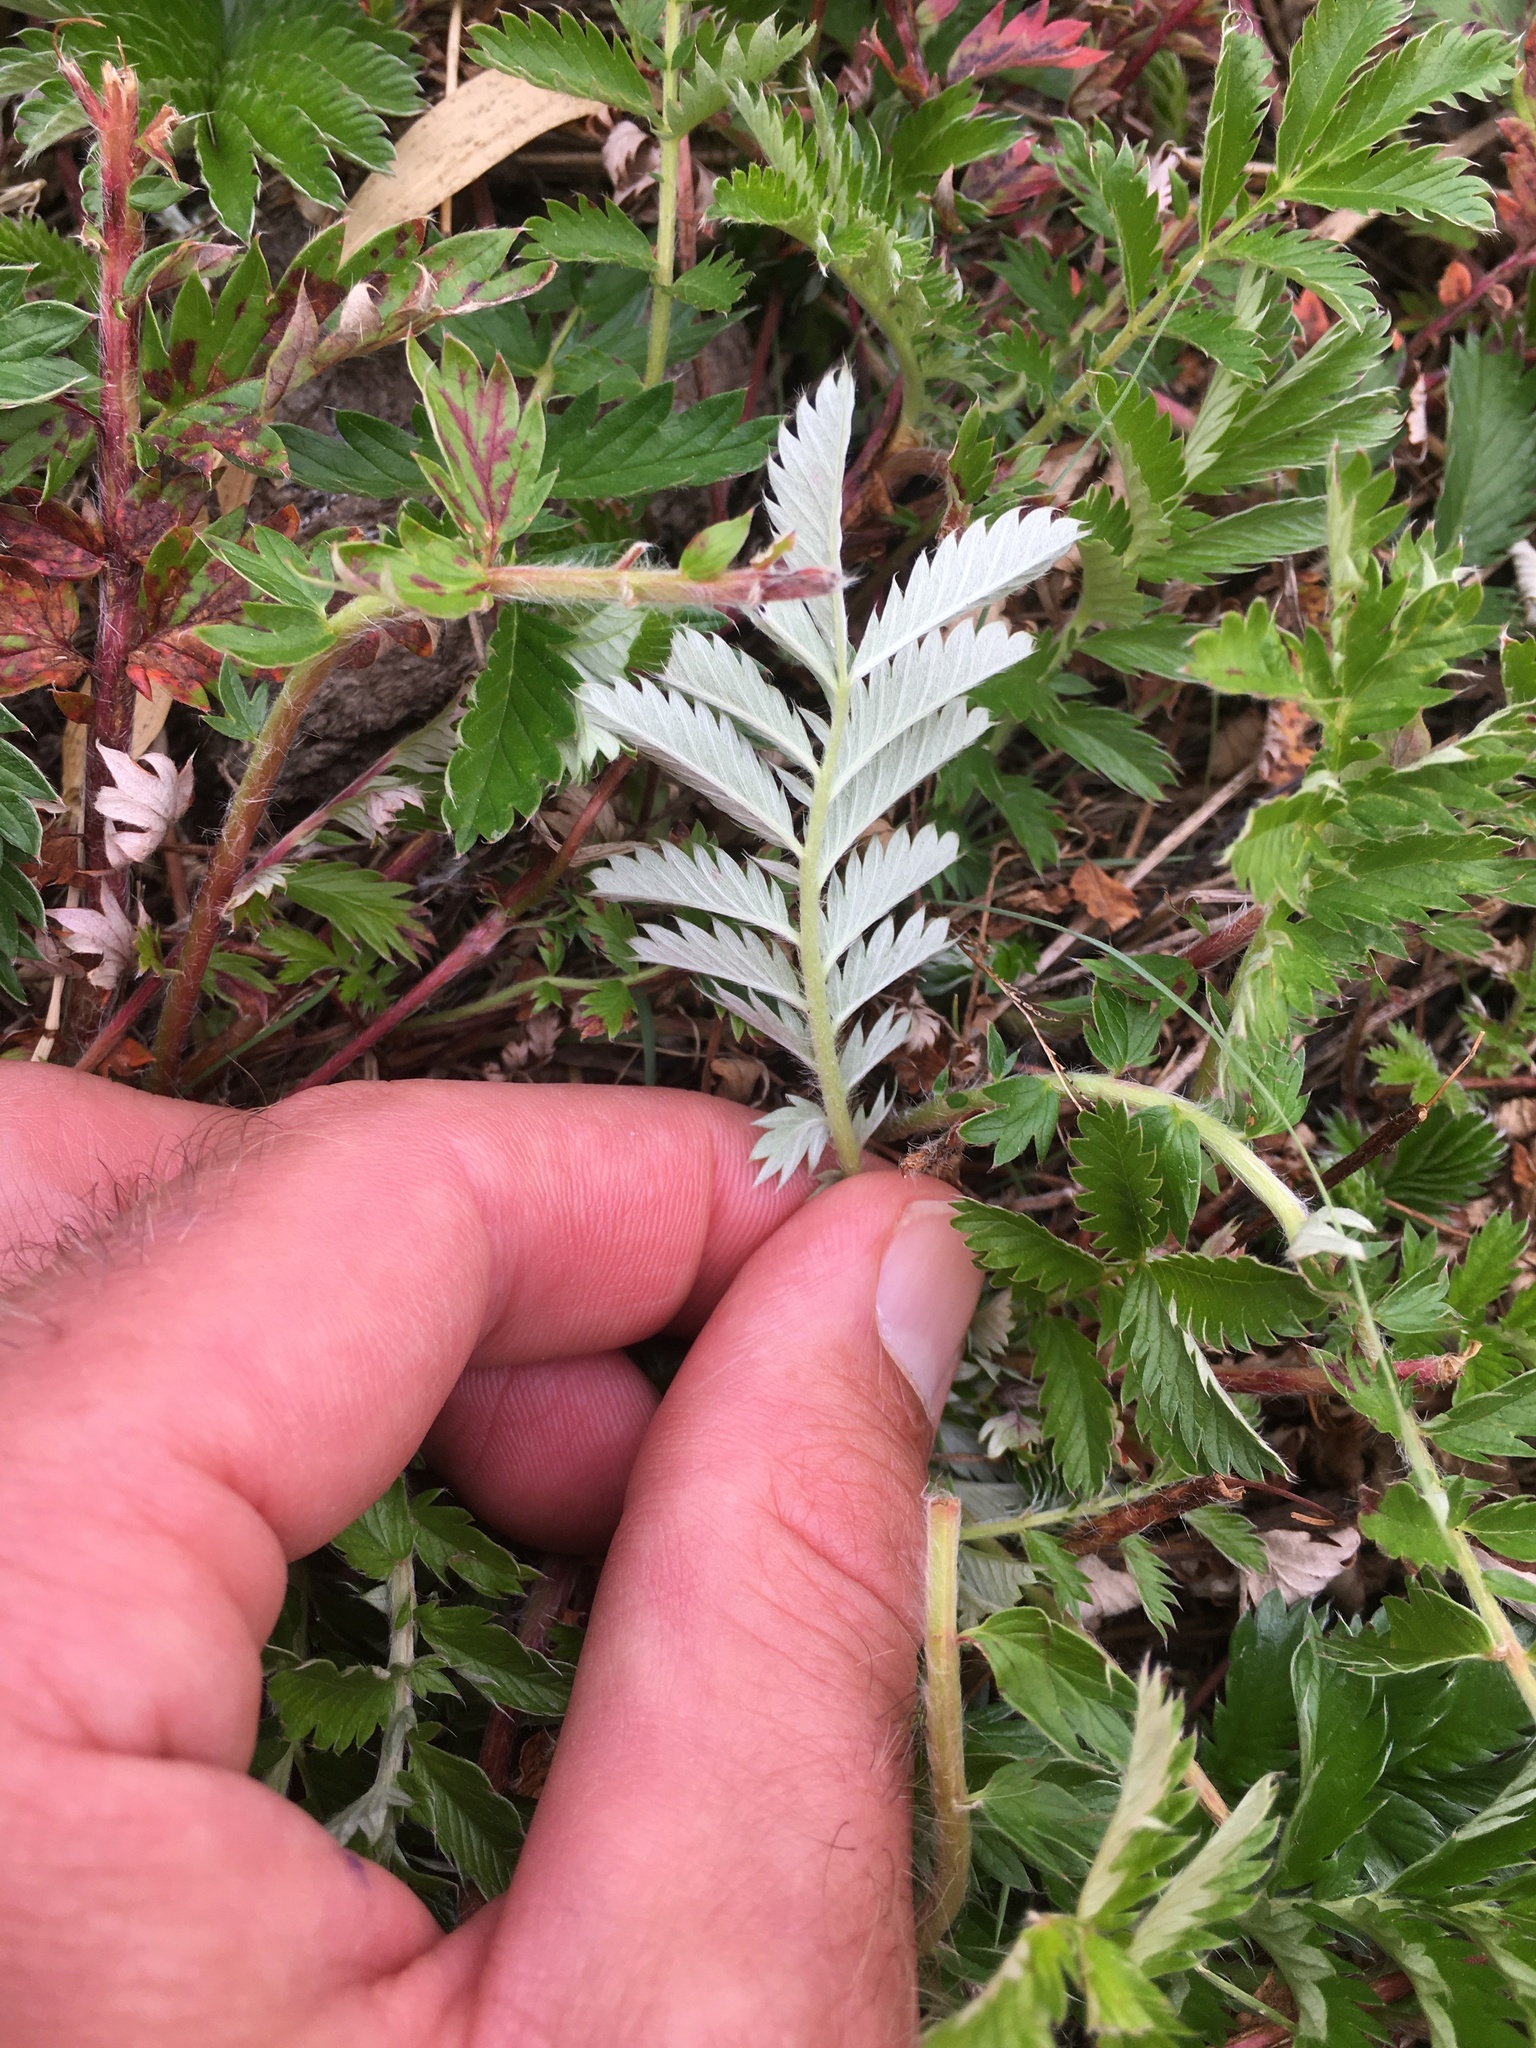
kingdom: Plantae
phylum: Tracheophyta
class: Magnoliopsida
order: Rosales
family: Rosaceae
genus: Argentina
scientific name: Argentina anserina
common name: Common silverweed
